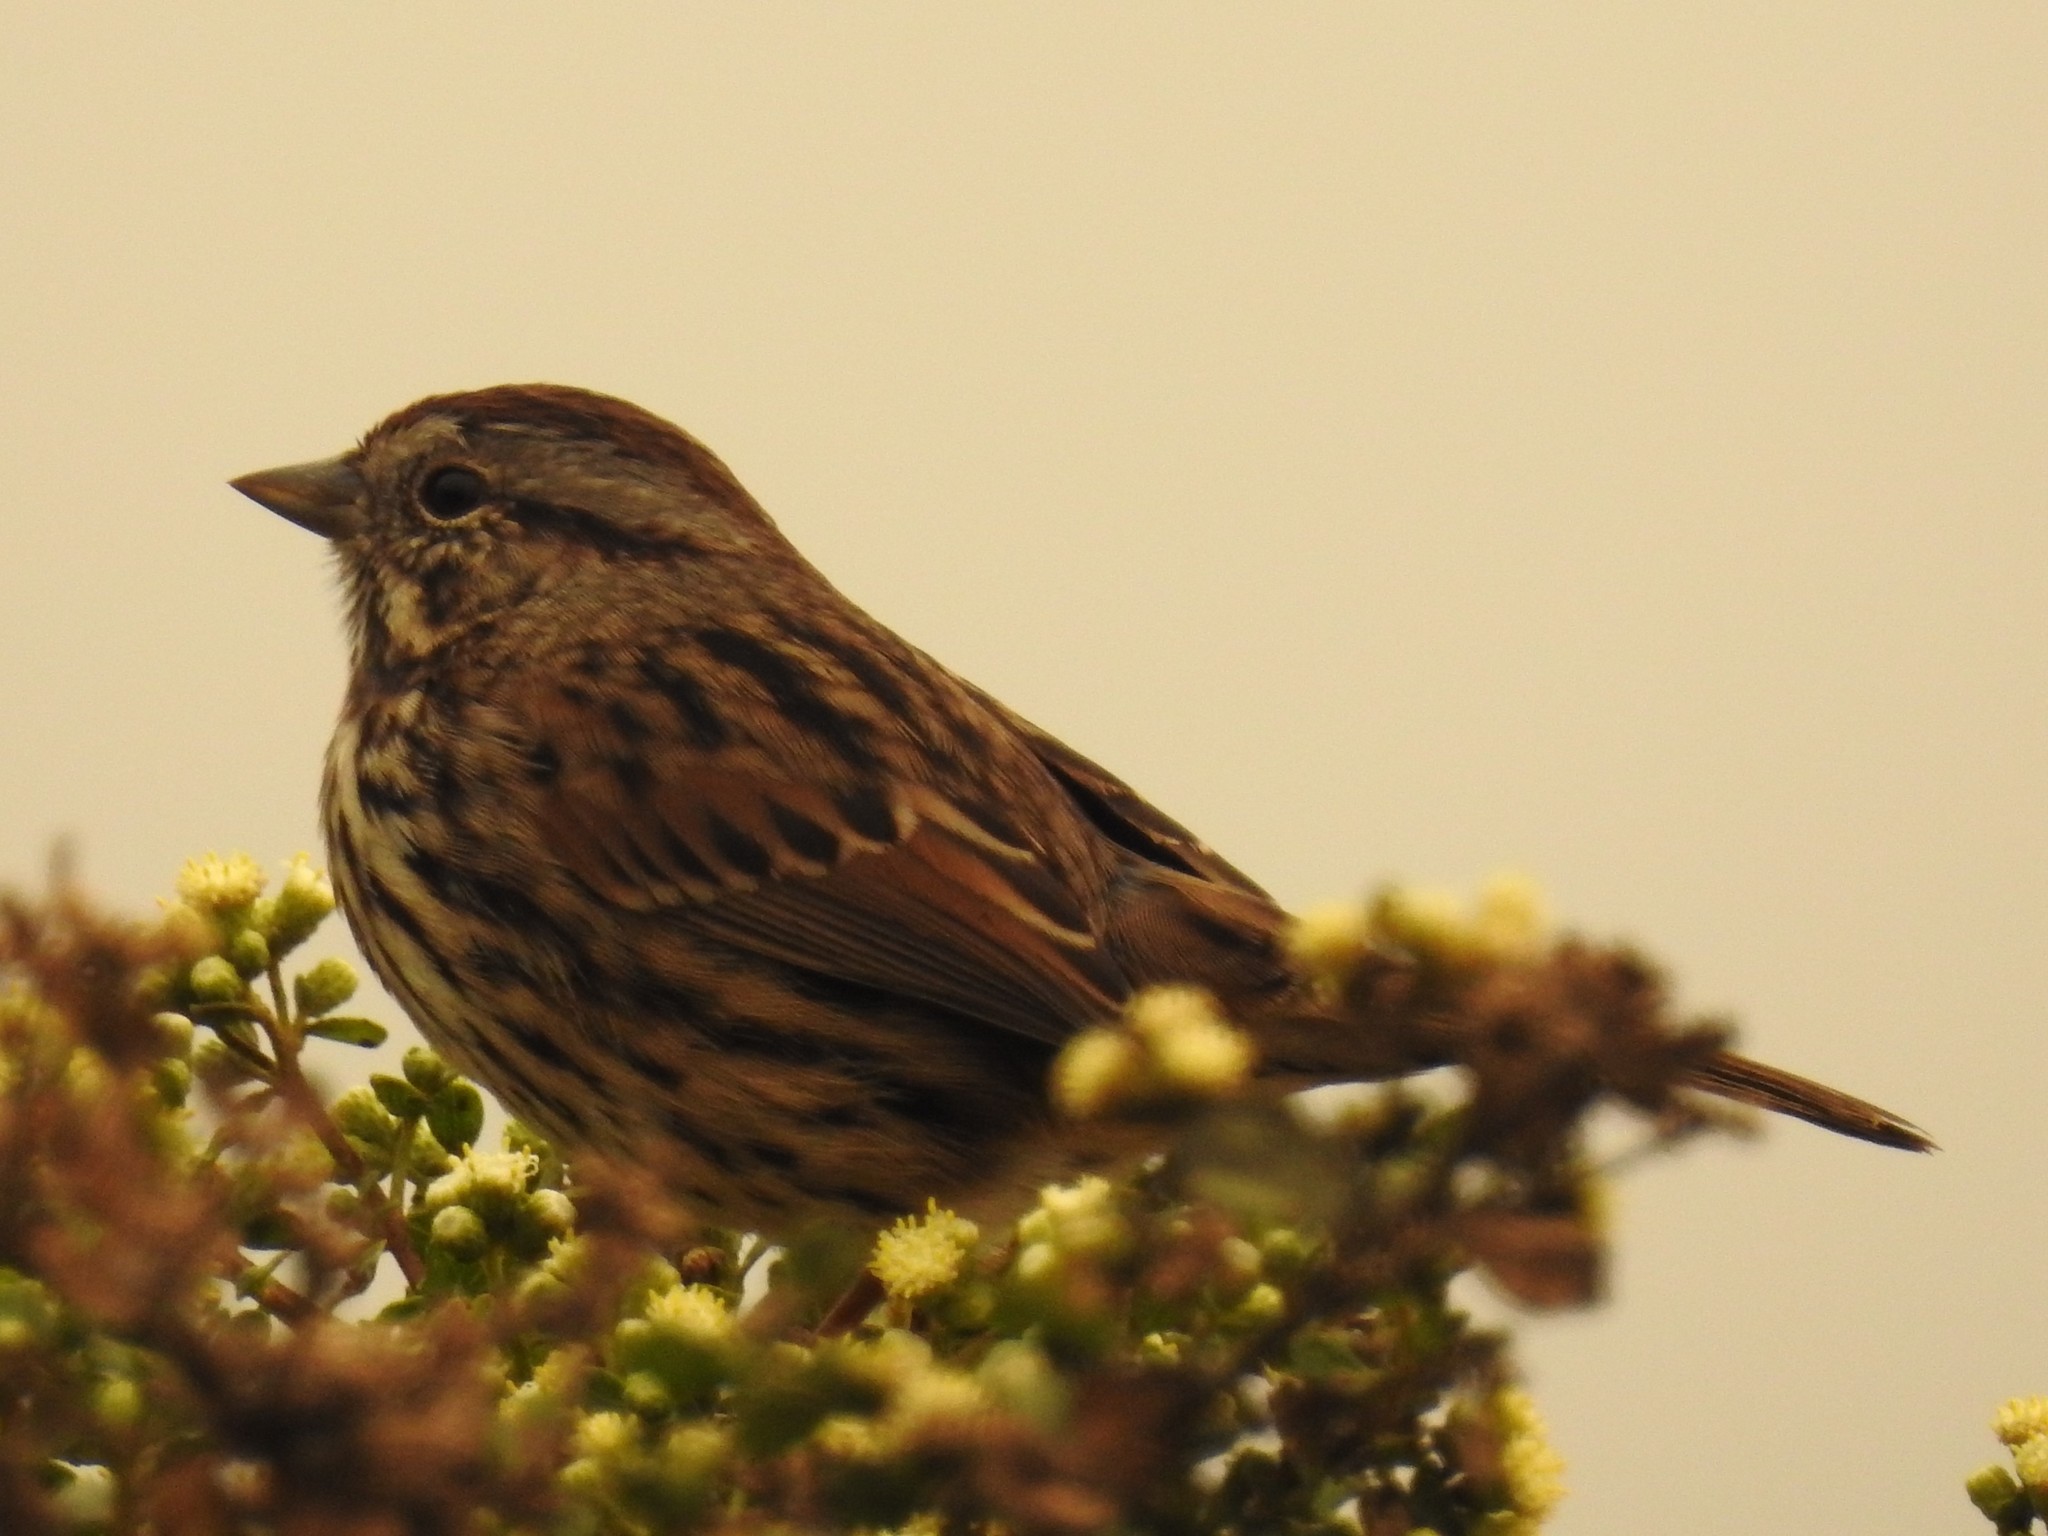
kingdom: Animalia
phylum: Chordata
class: Aves
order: Passeriformes
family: Passerellidae
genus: Melospiza
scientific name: Melospiza melodia
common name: Song sparrow
